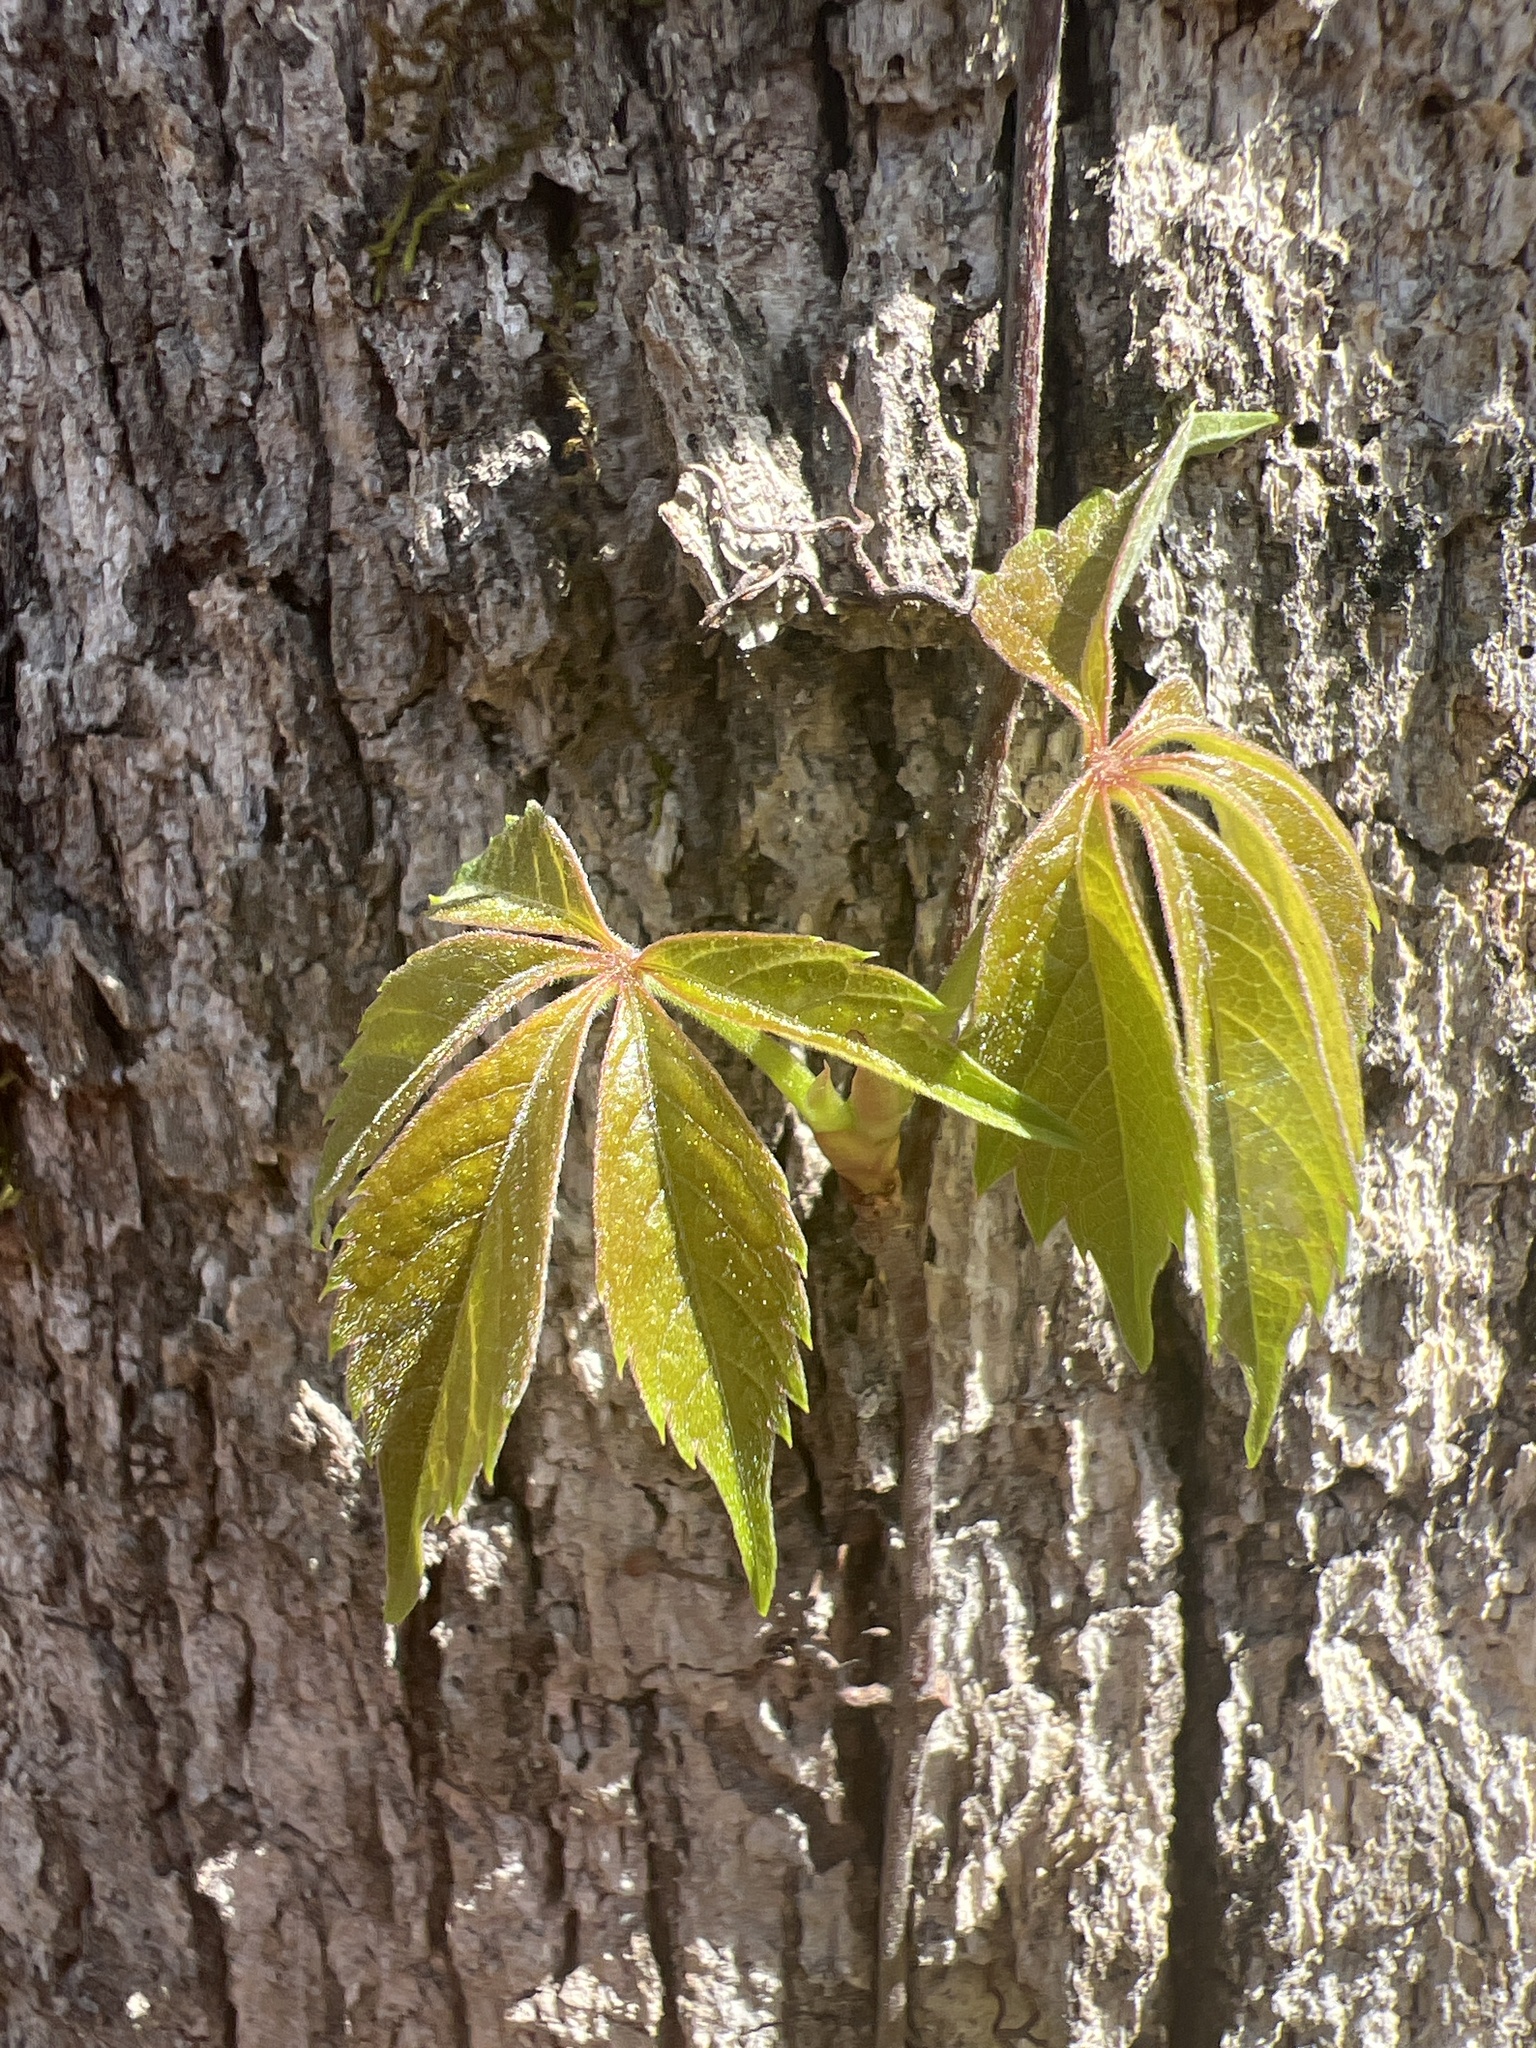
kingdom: Plantae
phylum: Tracheophyta
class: Magnoliopsida
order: Vitales
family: Vitaceae
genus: Parthenocissus
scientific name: Parthenocissus quinquefolia
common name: Virginia-creeper
